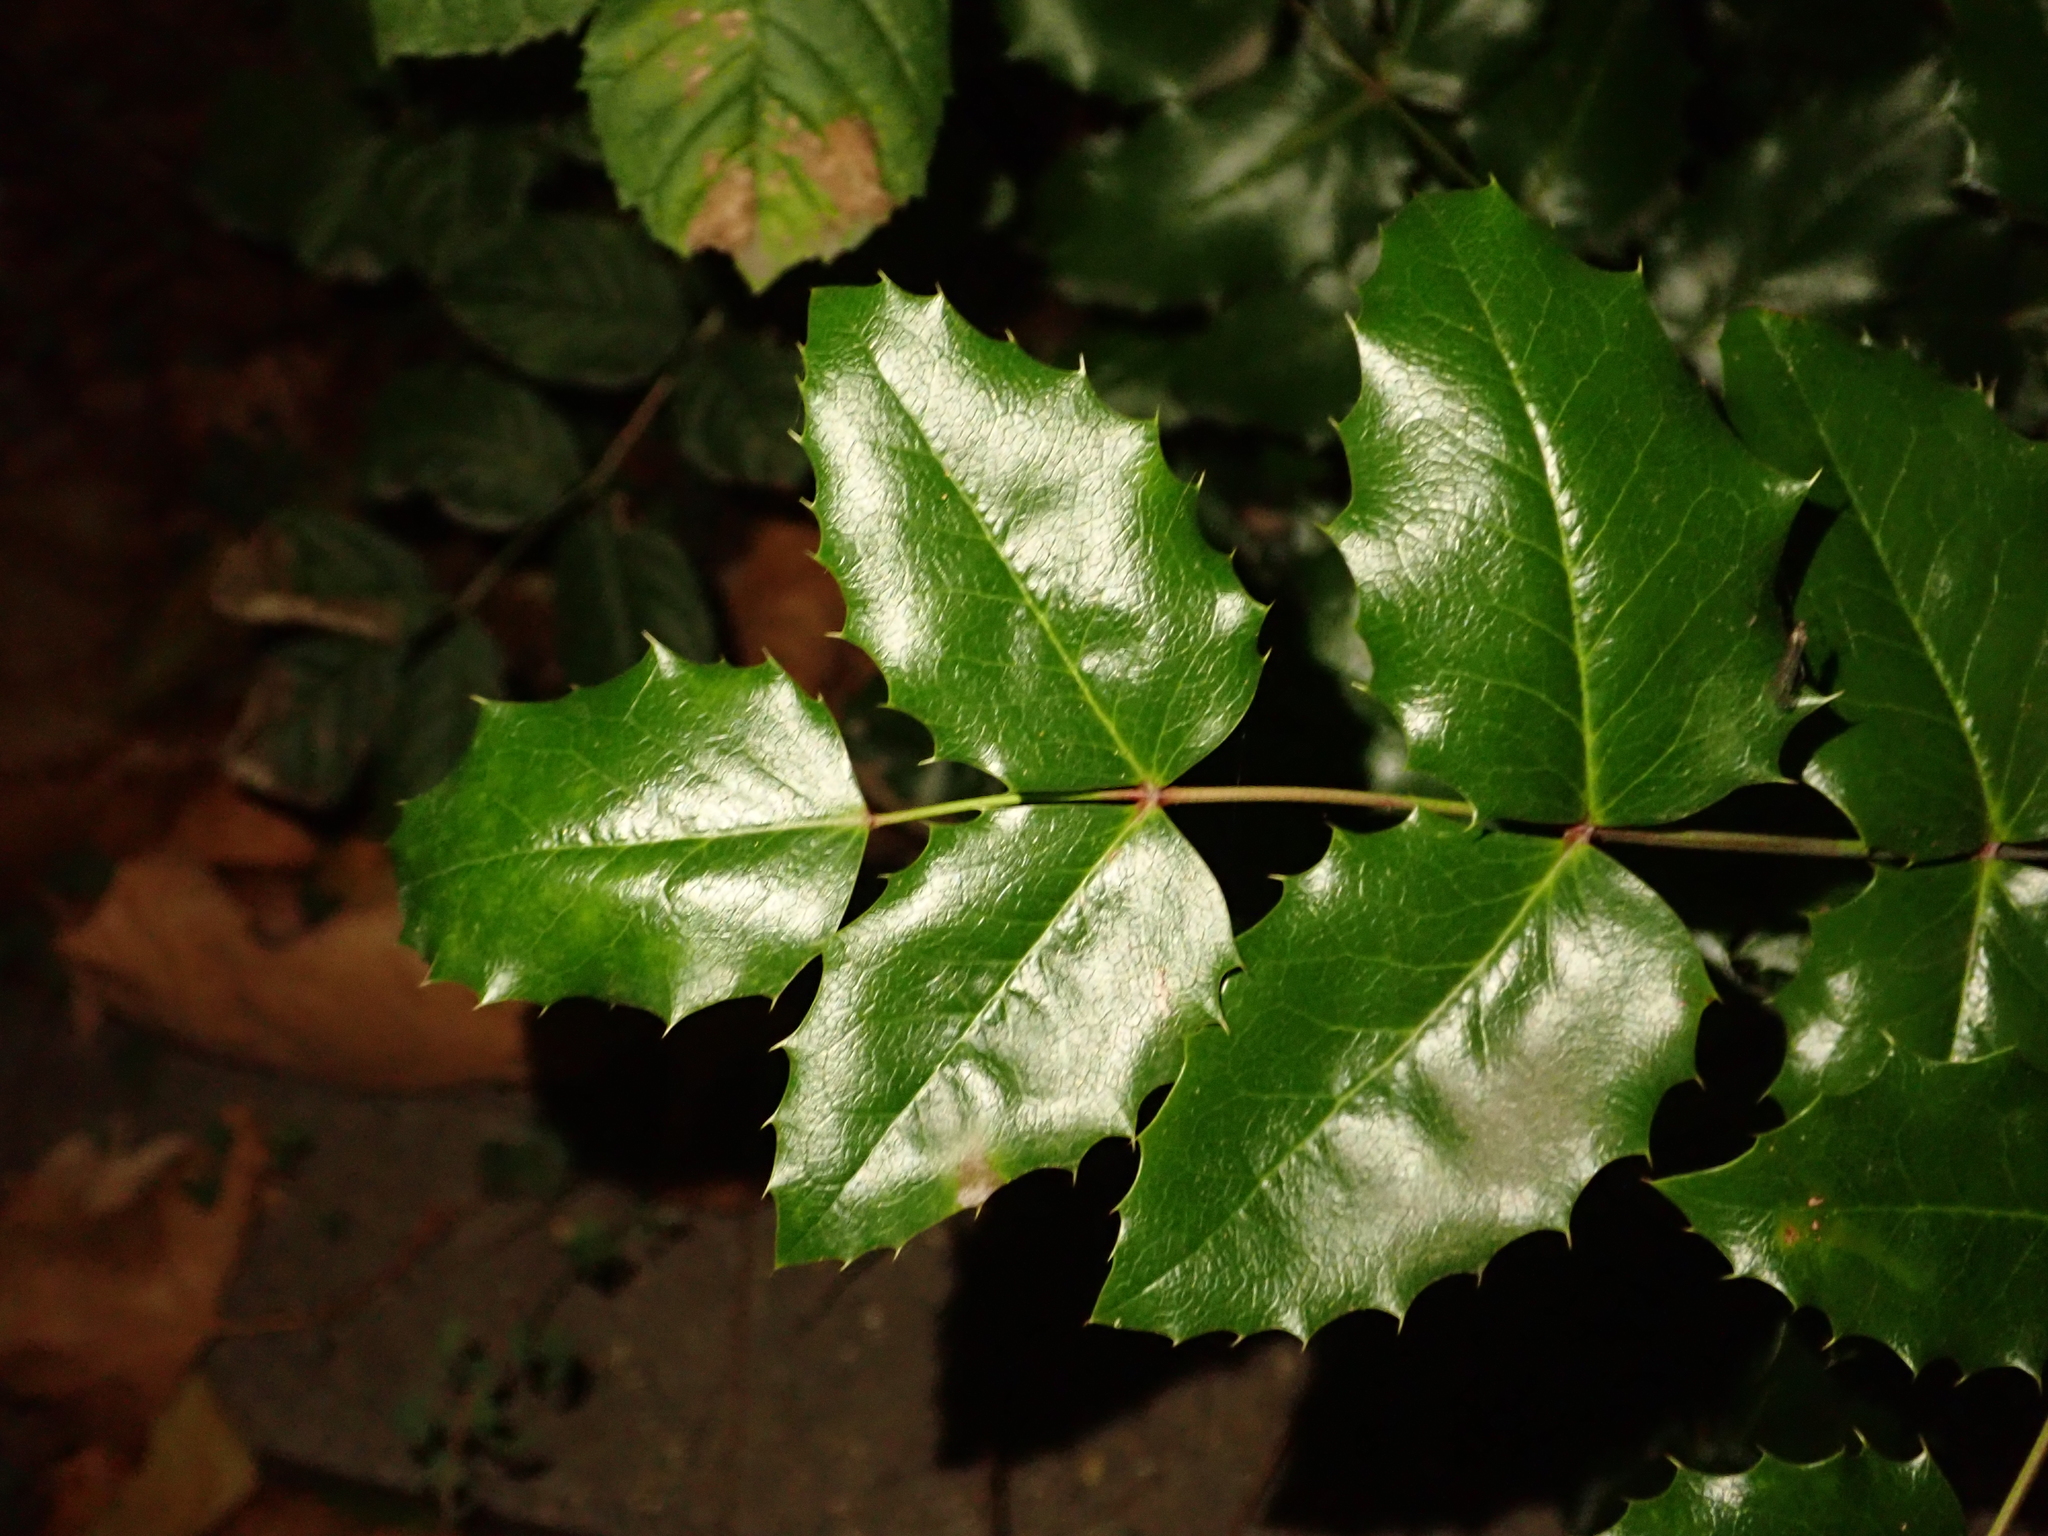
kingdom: Plantae
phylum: Tracheophyta
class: Magnoliopsida
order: Ranunculales
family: Berberidaceae
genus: Mahonia
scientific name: Mahonia aquifolium
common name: Oregon-grape
